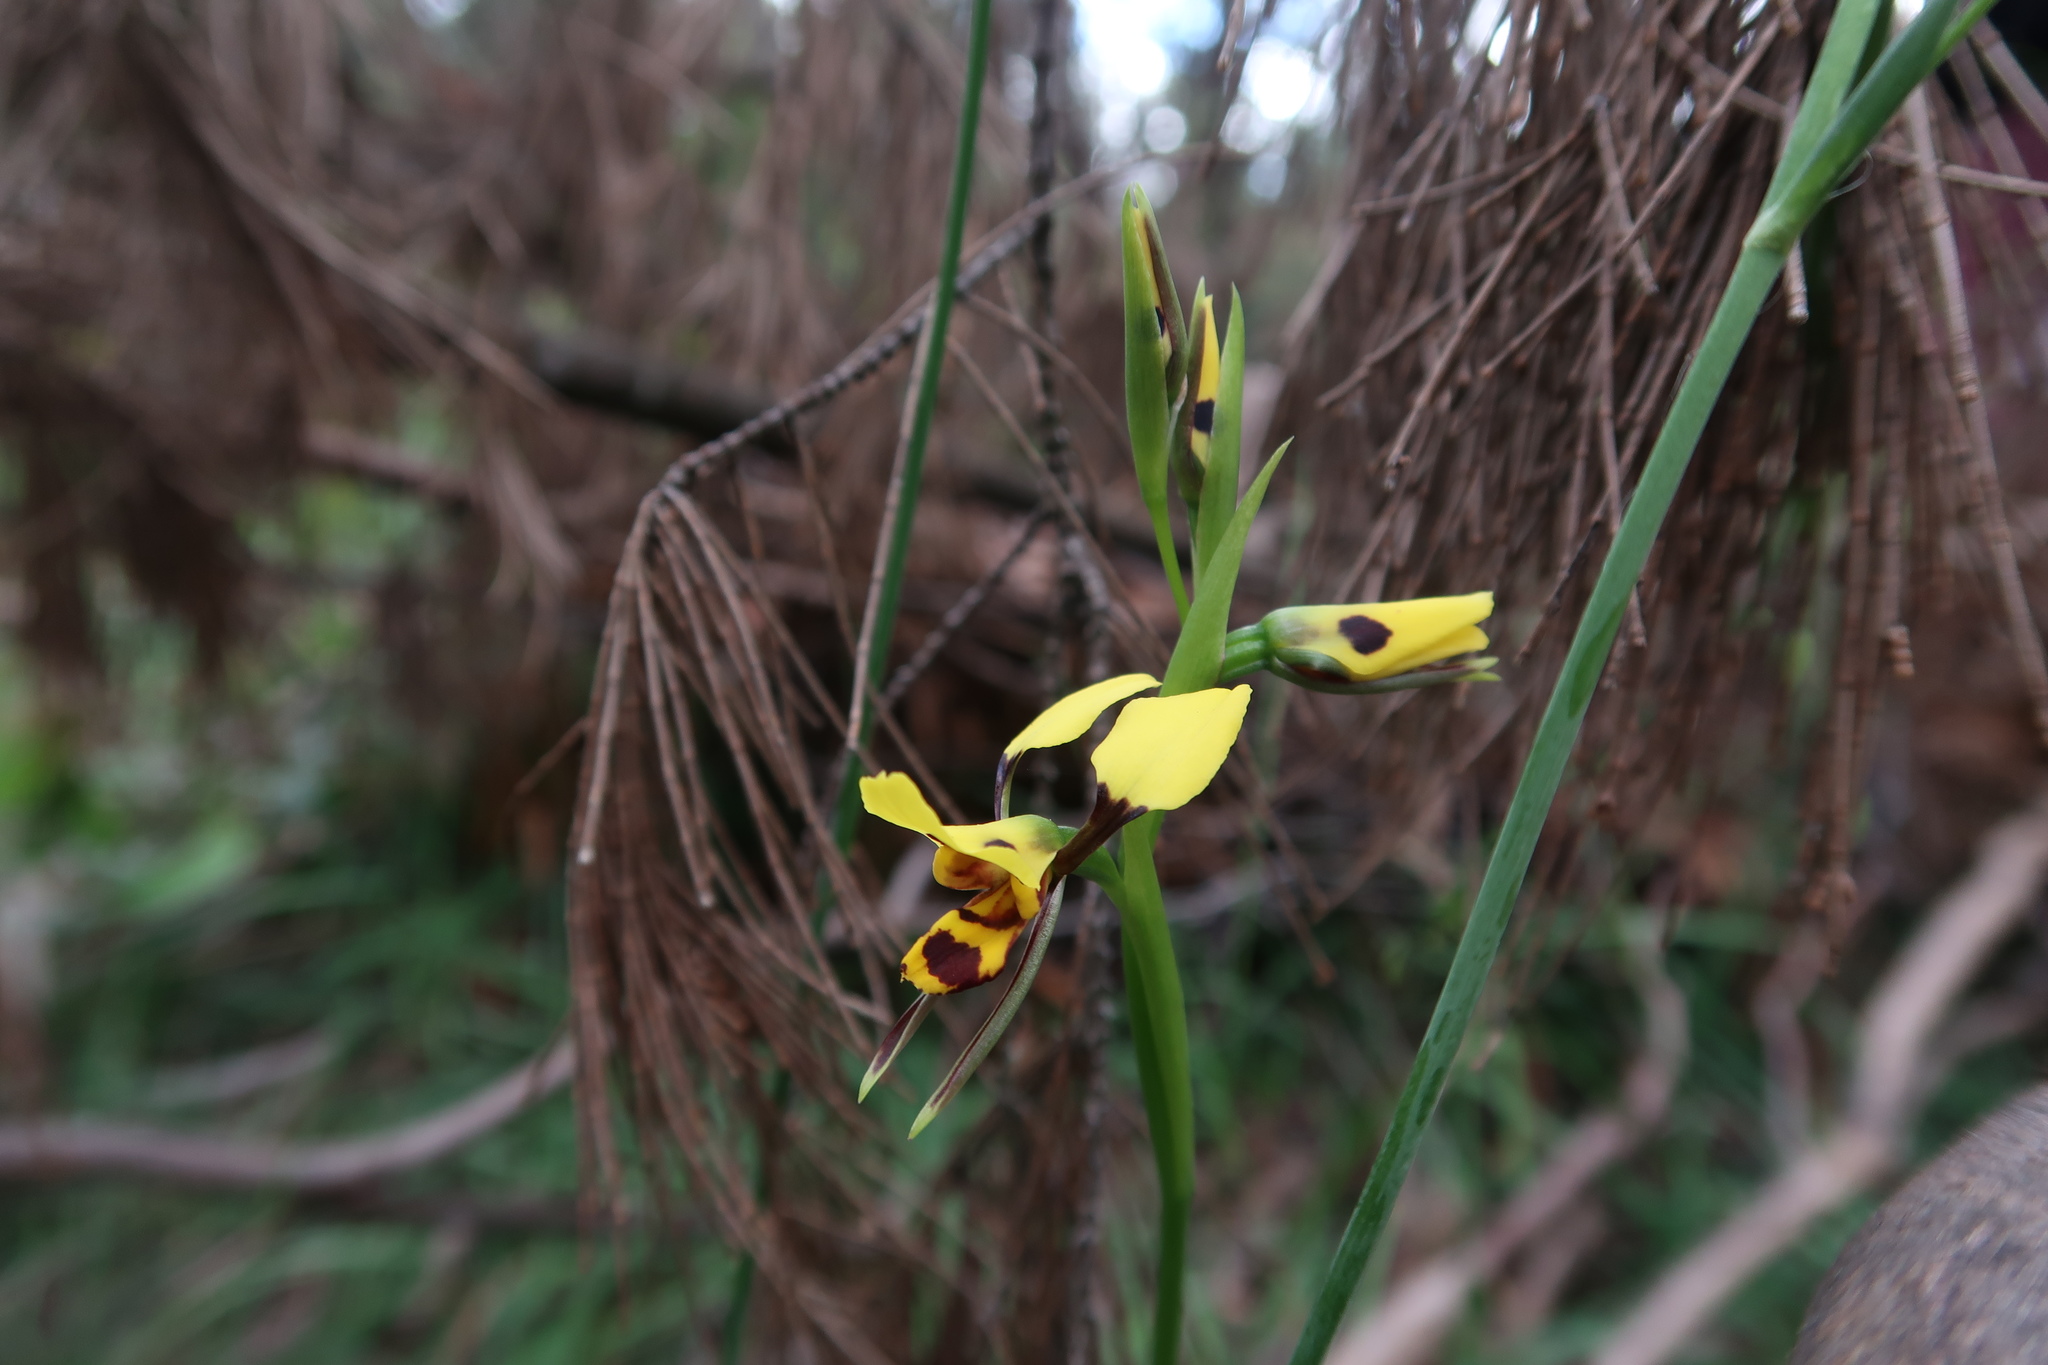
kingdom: Plantae
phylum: Tracheophyta
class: Liliopsida
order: Asparagales
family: Orchidaceae
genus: Diuris
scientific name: Diuris sulphurea
